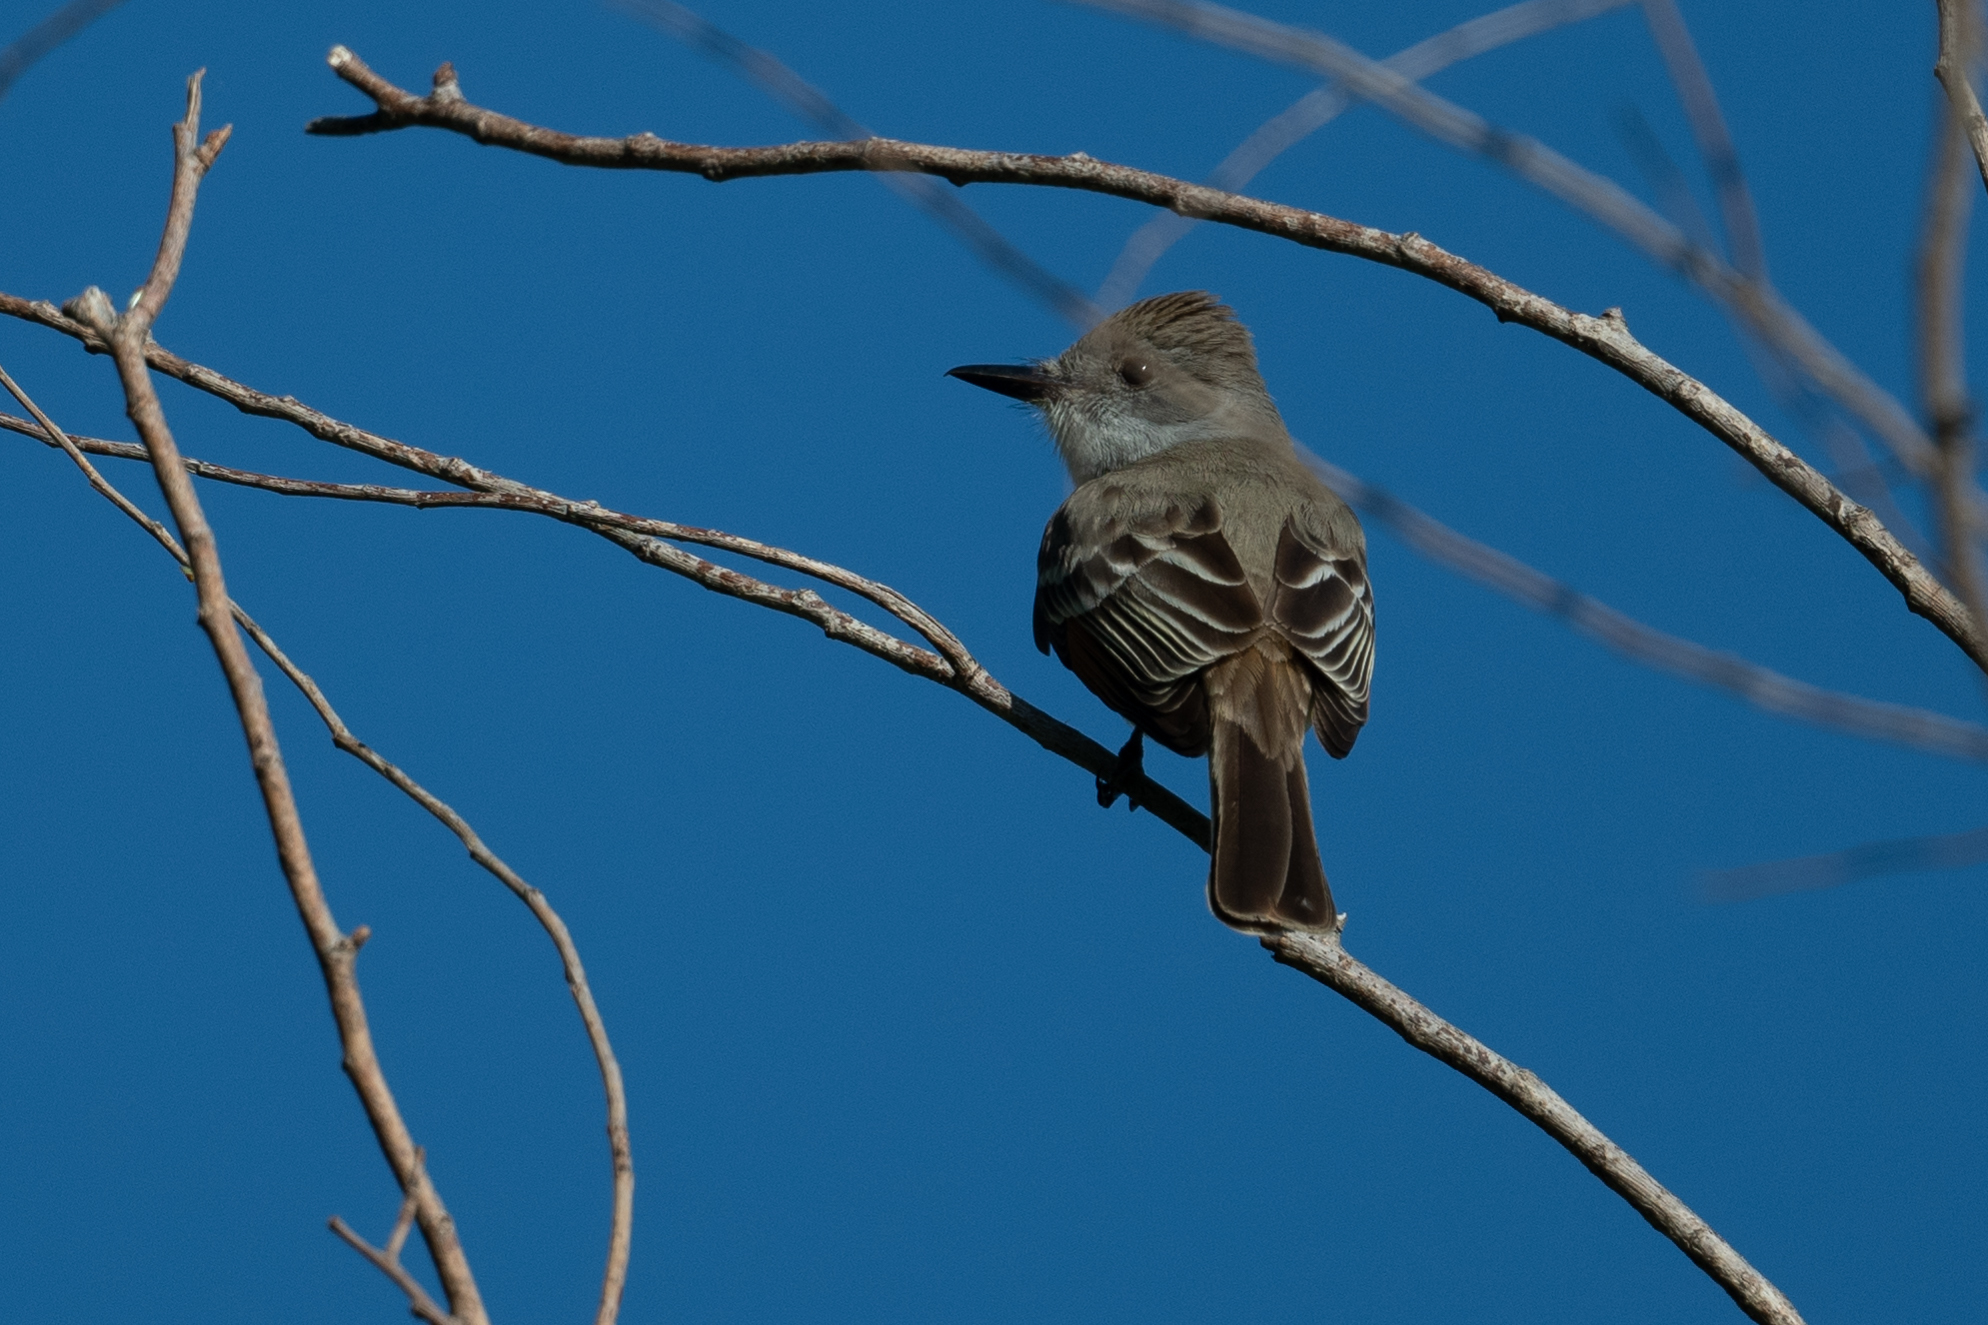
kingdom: Animalia
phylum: Chordata
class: Aves
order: Passeriformes
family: Tyrannidae
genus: Myiarchus
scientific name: Myiarchus cinerascens
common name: Ash-throated flycatcher
